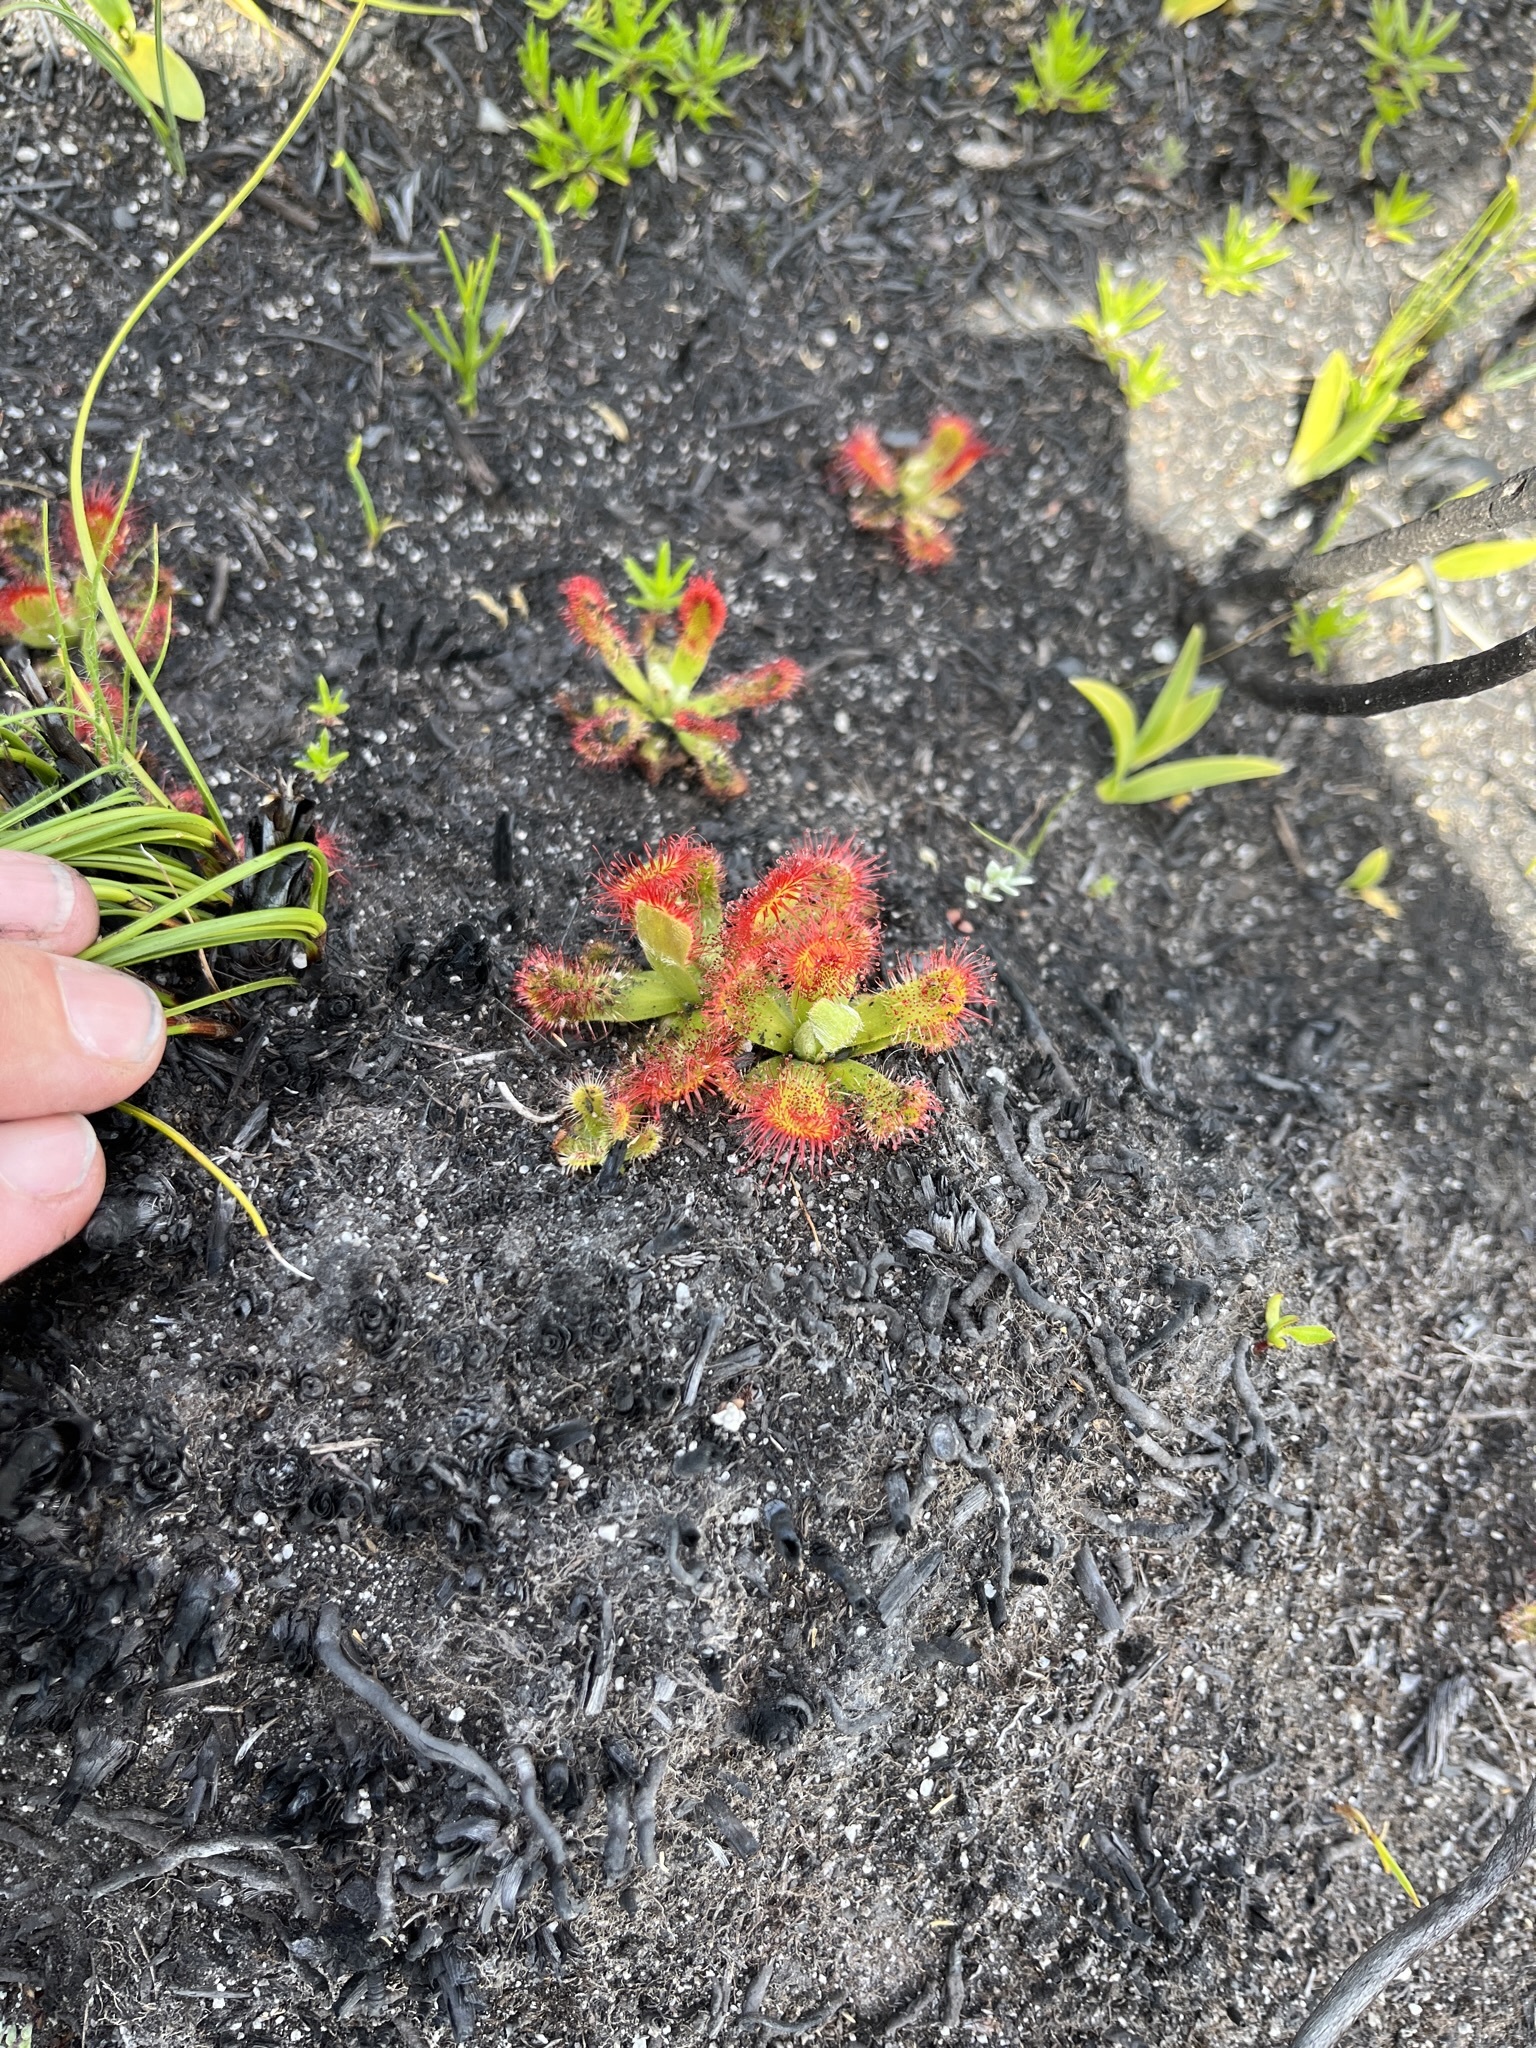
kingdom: Plantae
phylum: Tracheophyta
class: Magnoliopsida
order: Caryophyllales
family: Droseraceae
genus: Drosera
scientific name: Drosera aliciae
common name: Alice sundew
